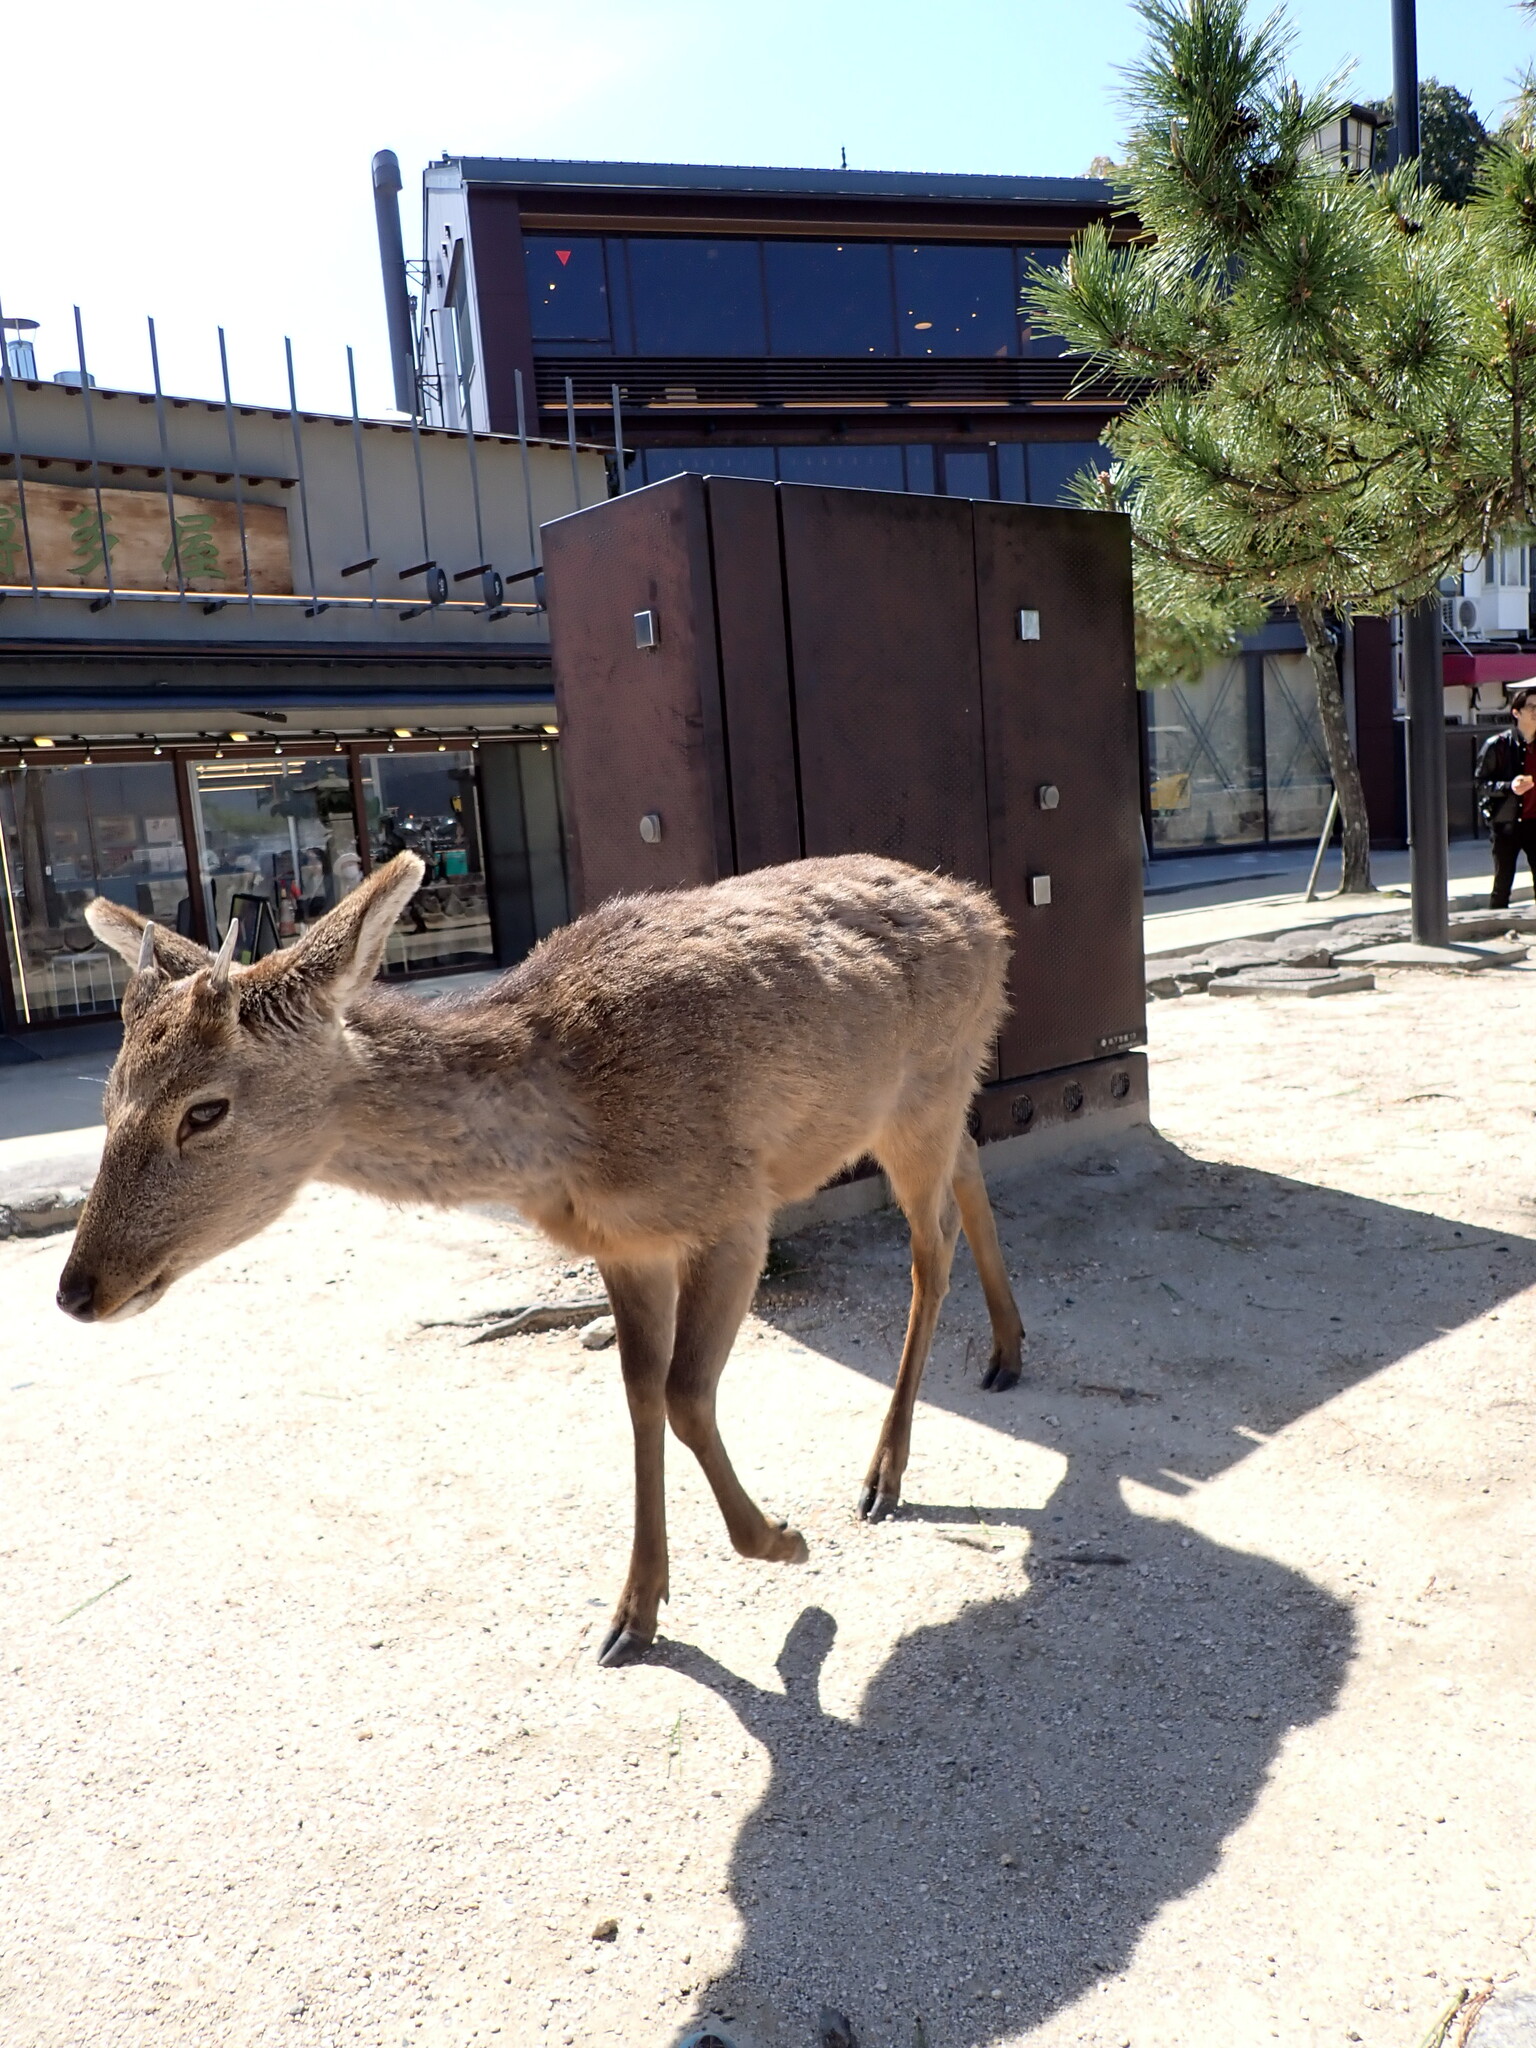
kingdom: Animalia
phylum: Chordata
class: Mammalia
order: Artiodactyla
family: Cervidae
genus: Cervus
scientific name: Cervus nippon
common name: Sika deer
